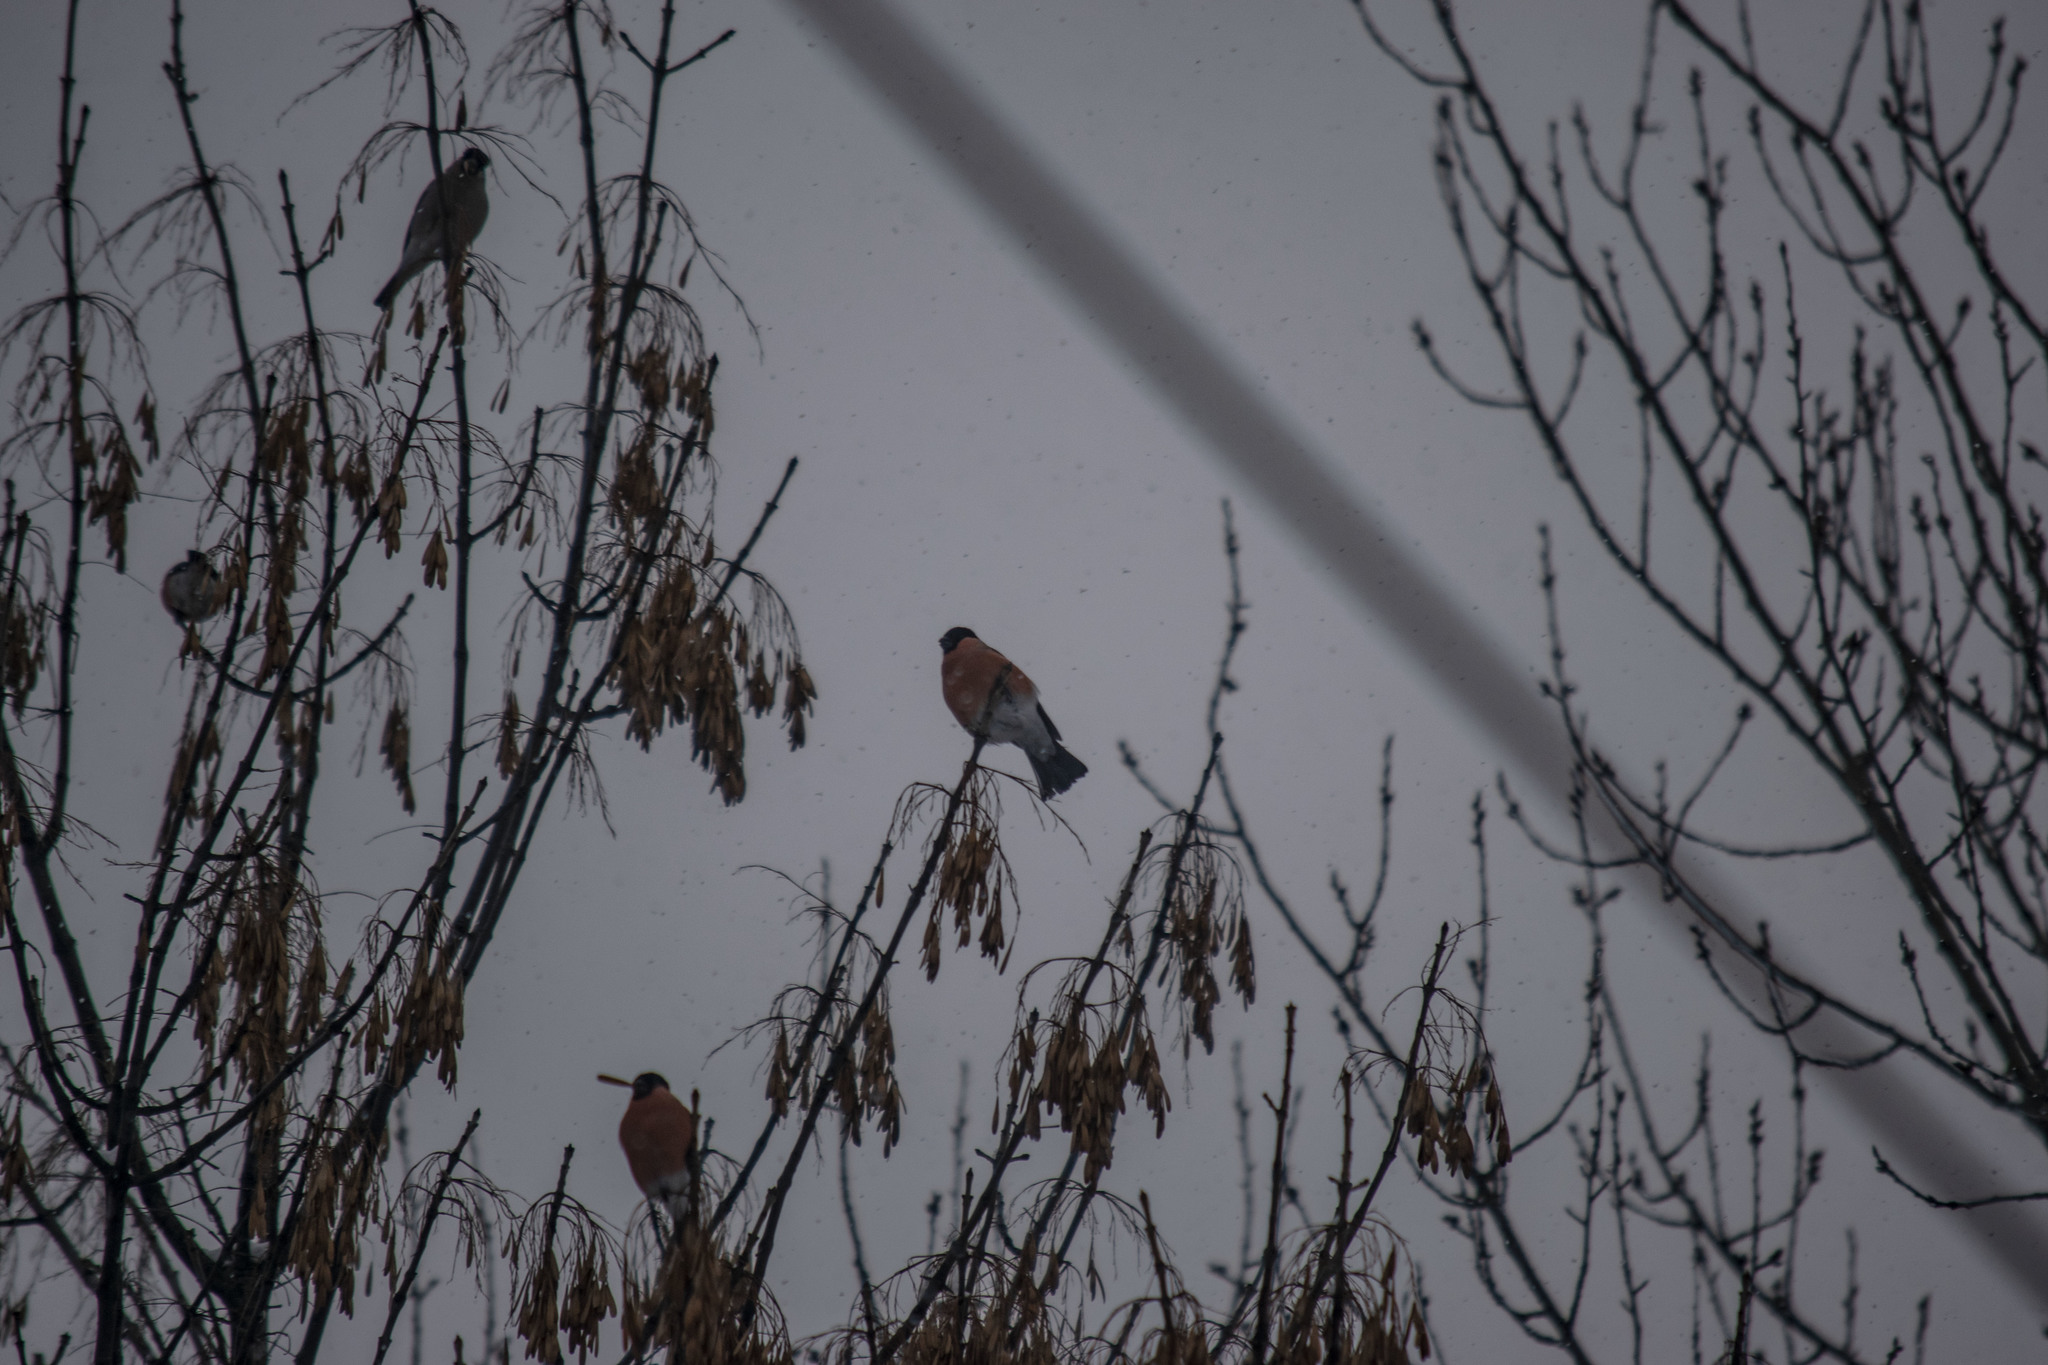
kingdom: Animalia
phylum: Chordata
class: Aves
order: Passeriformes
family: Fringillidae
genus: Pyrrhula
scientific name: Pyrrhula pyrrhula
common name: Eurasian bullfinch
